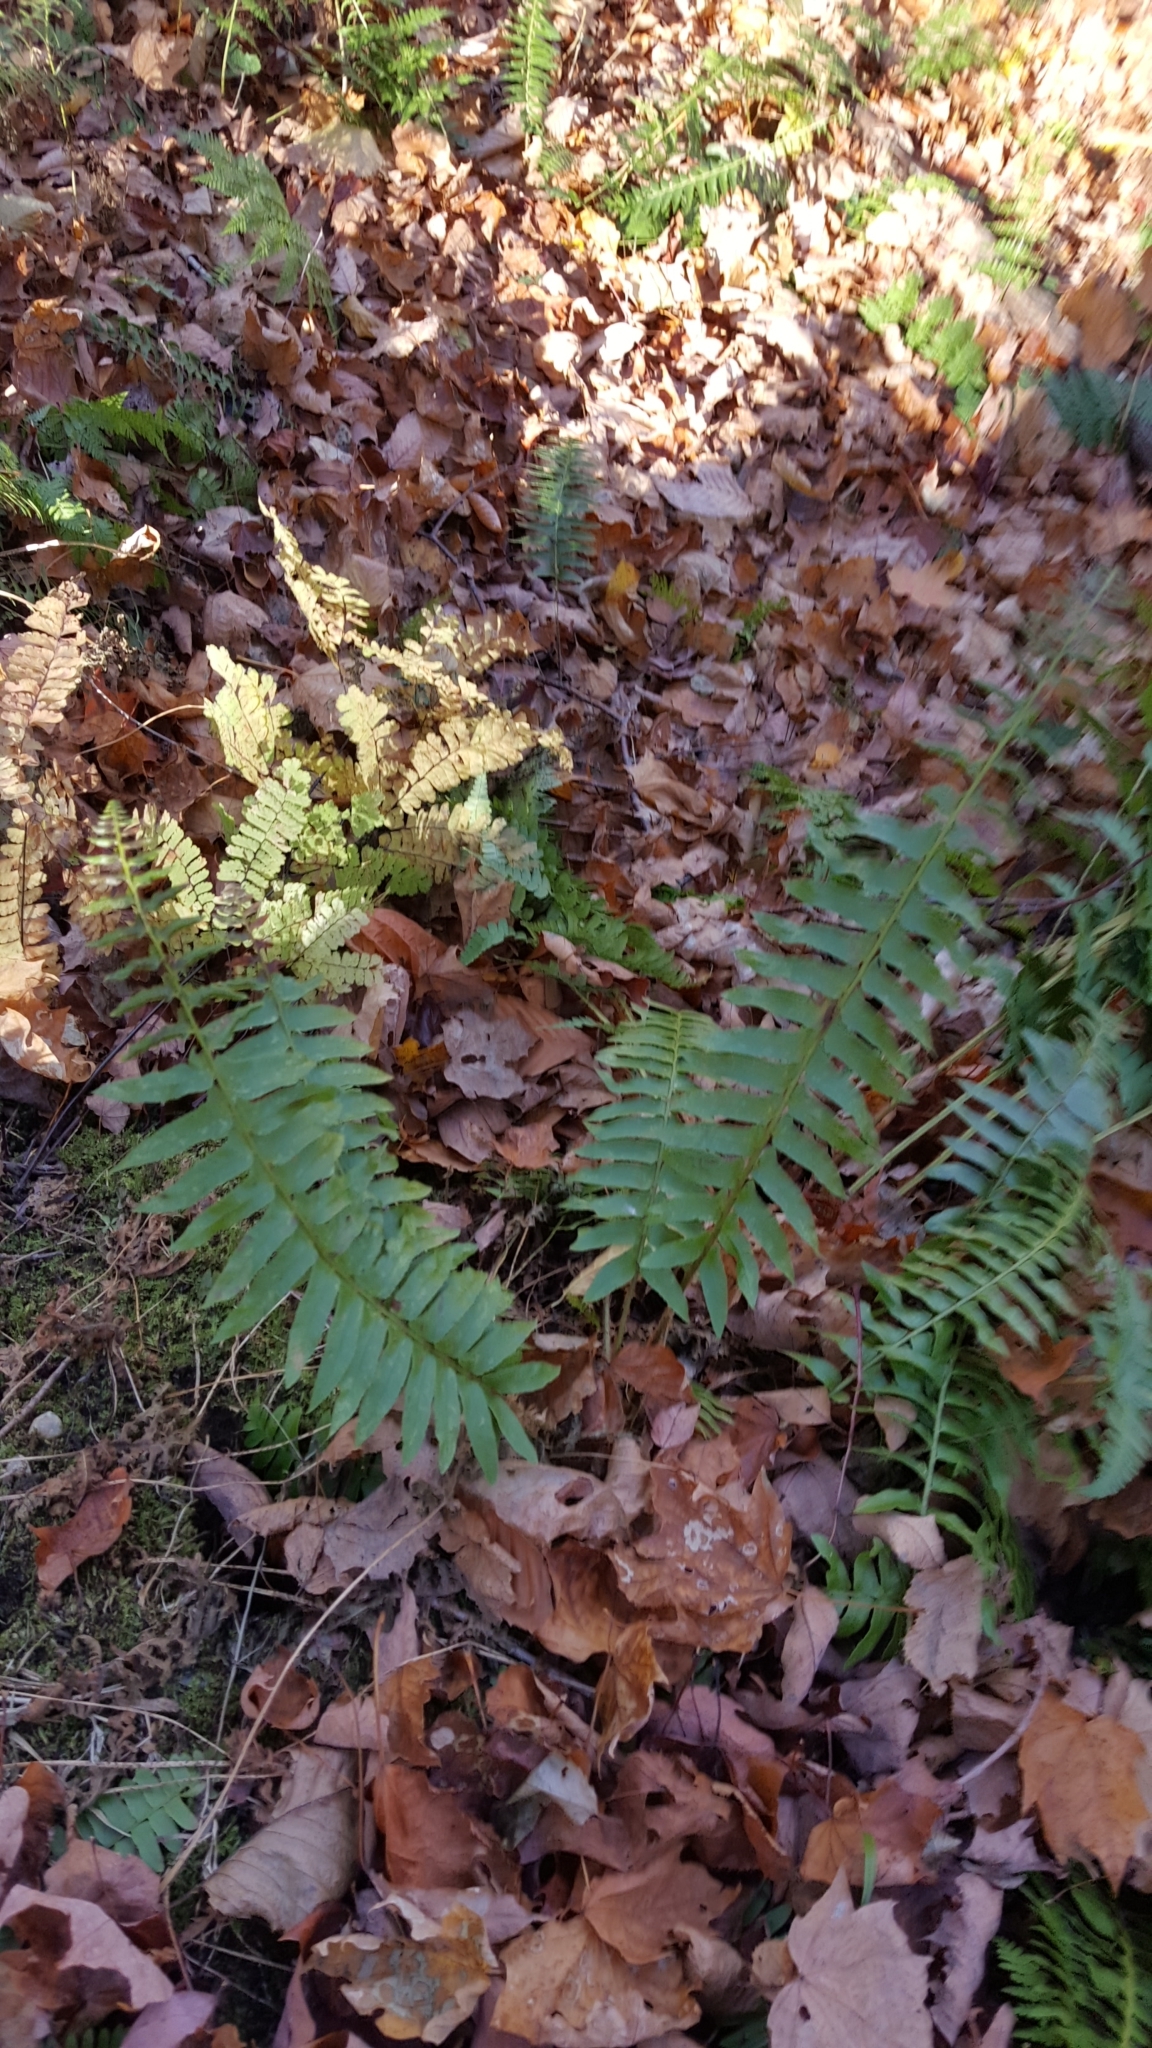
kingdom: Plantae
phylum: Tracheophyta
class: Polypodiopsida
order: Polypodiales
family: Dryopteridaceae
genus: Polystichum
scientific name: Polystichum acrostichoides
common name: Christmas fern
